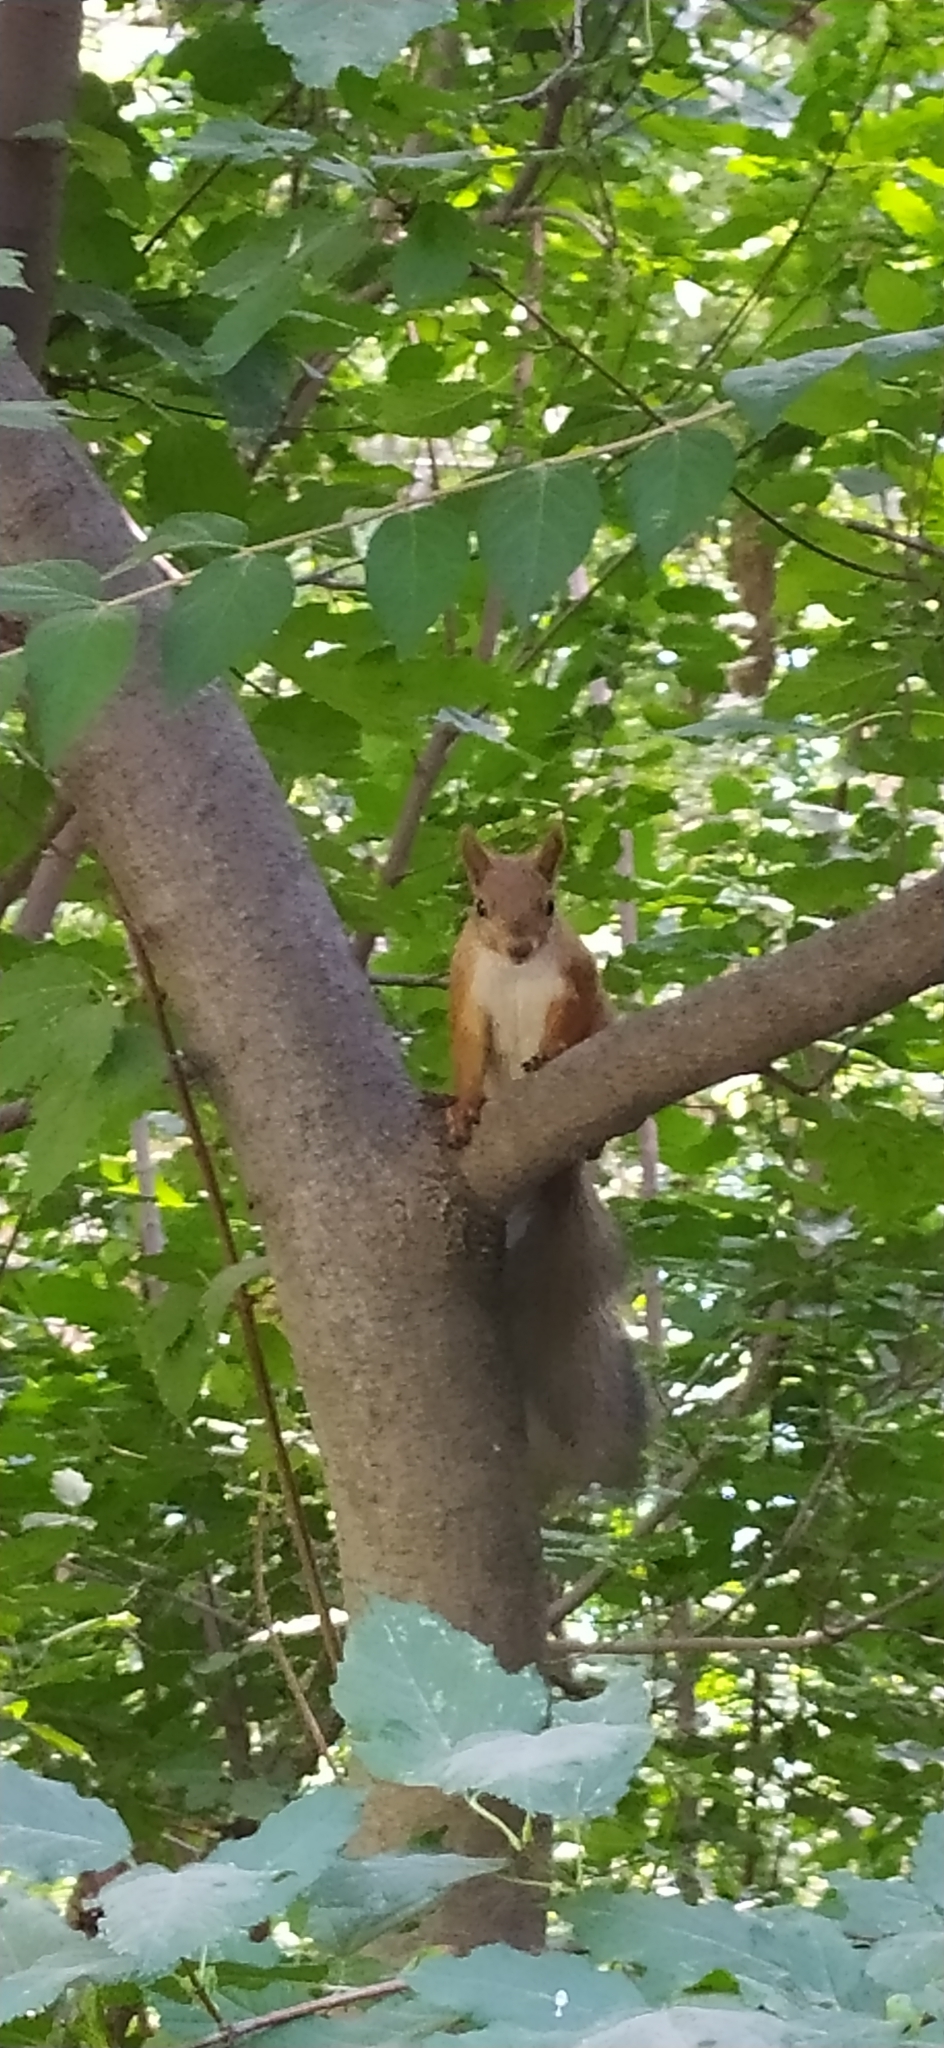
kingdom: Animalia
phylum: Chordata
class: Mammalia
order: Rodentia
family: Sciuridae
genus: Sciurus
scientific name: Sciurus vulgaris
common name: Eurasian red squirrel
